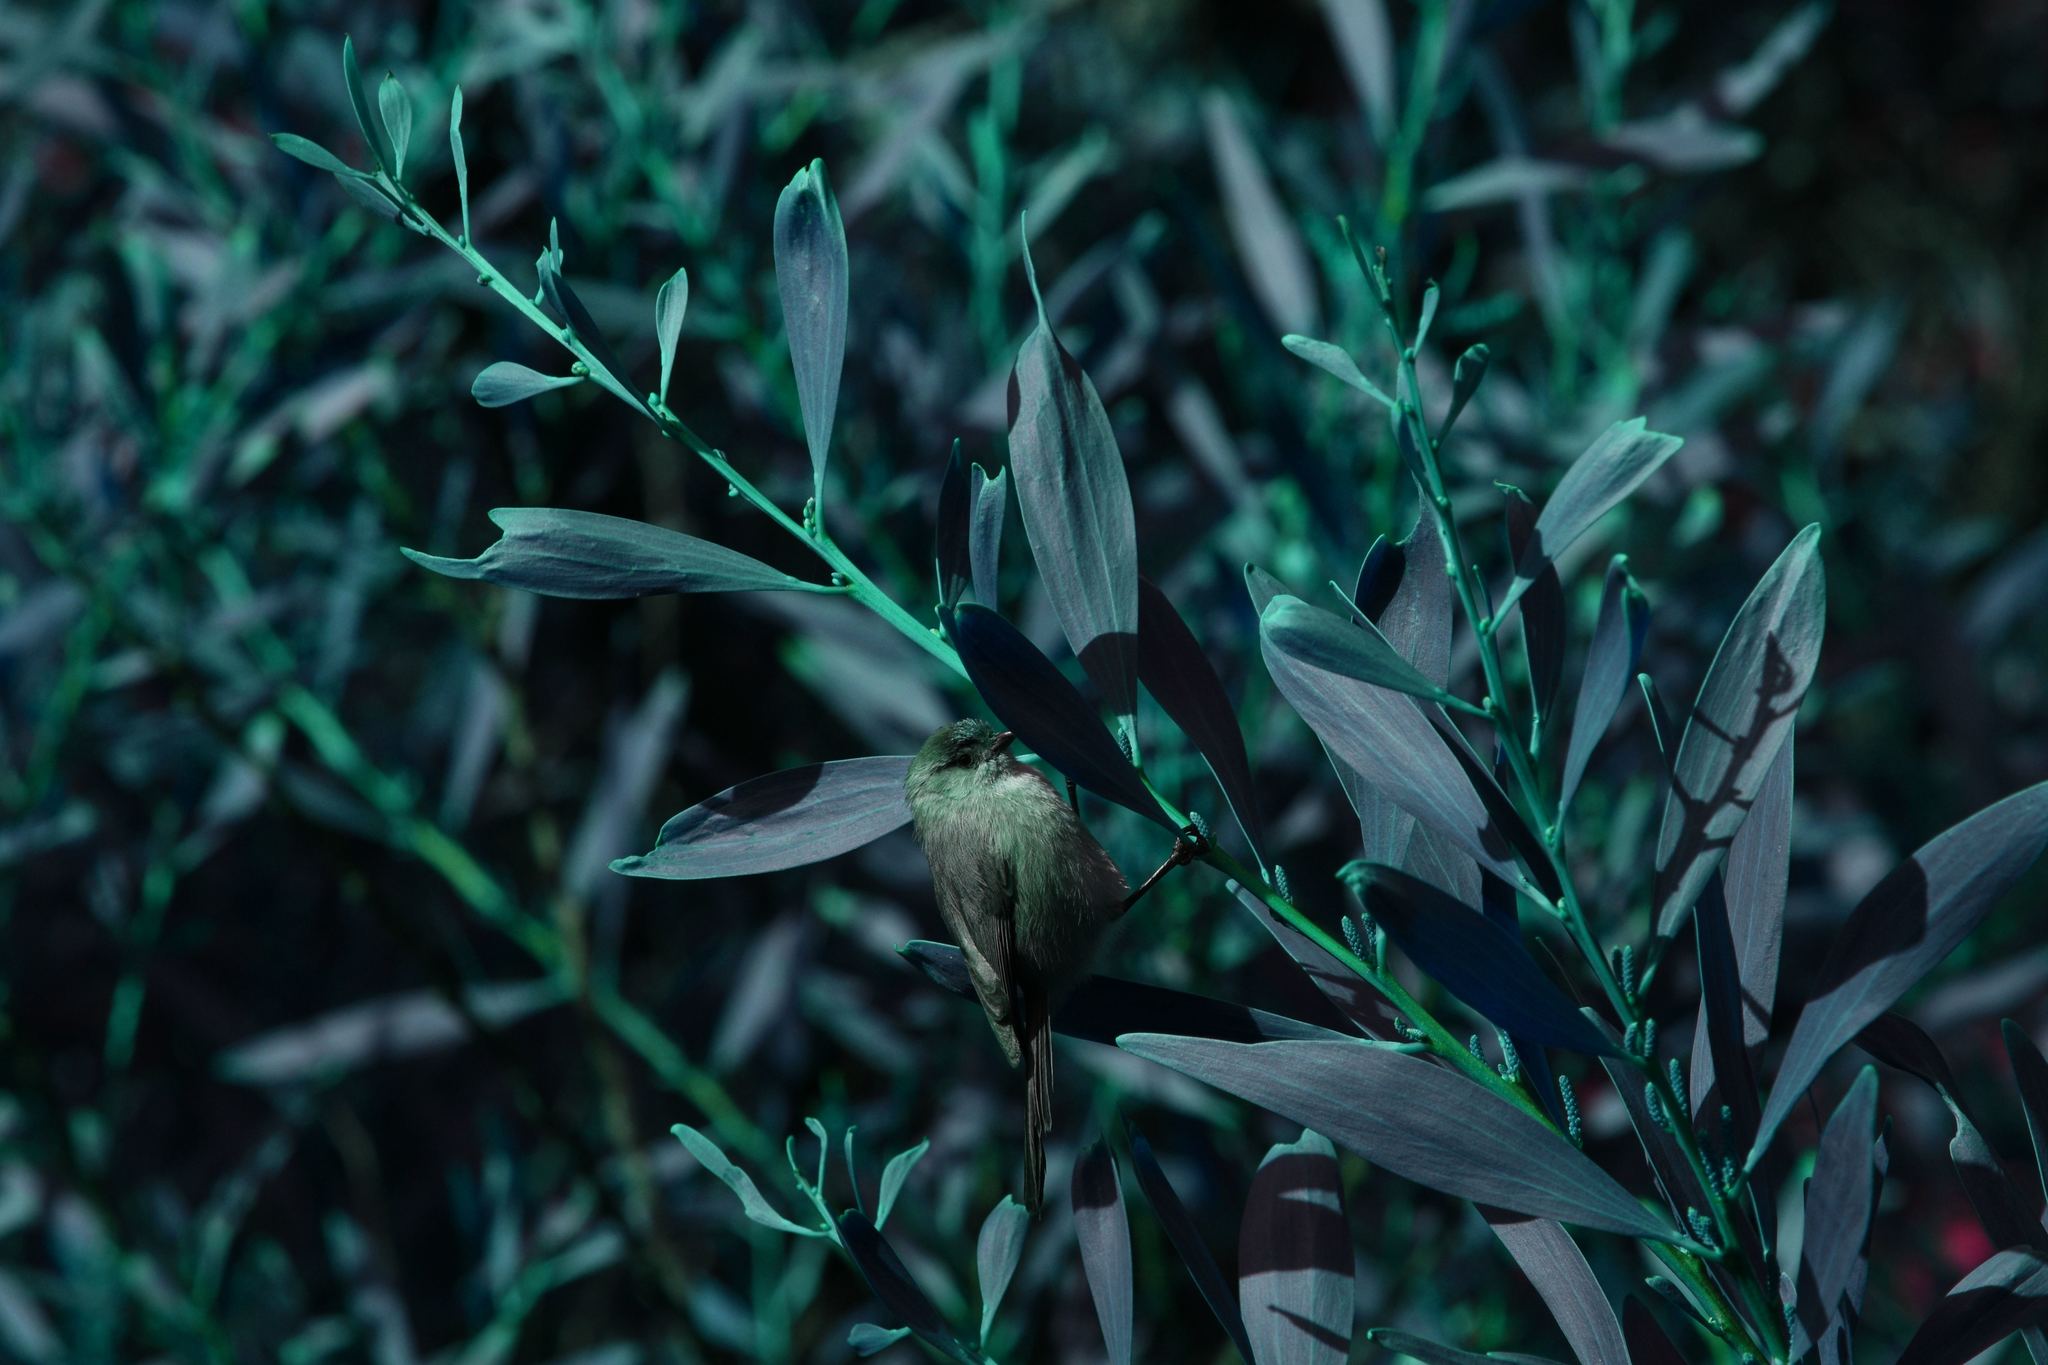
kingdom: Animalia
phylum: Chordata
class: Aves
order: Passeriformes
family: Aegithalidae
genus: Psaltriparus
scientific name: Psaltriparus minimus
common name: American bushtit
